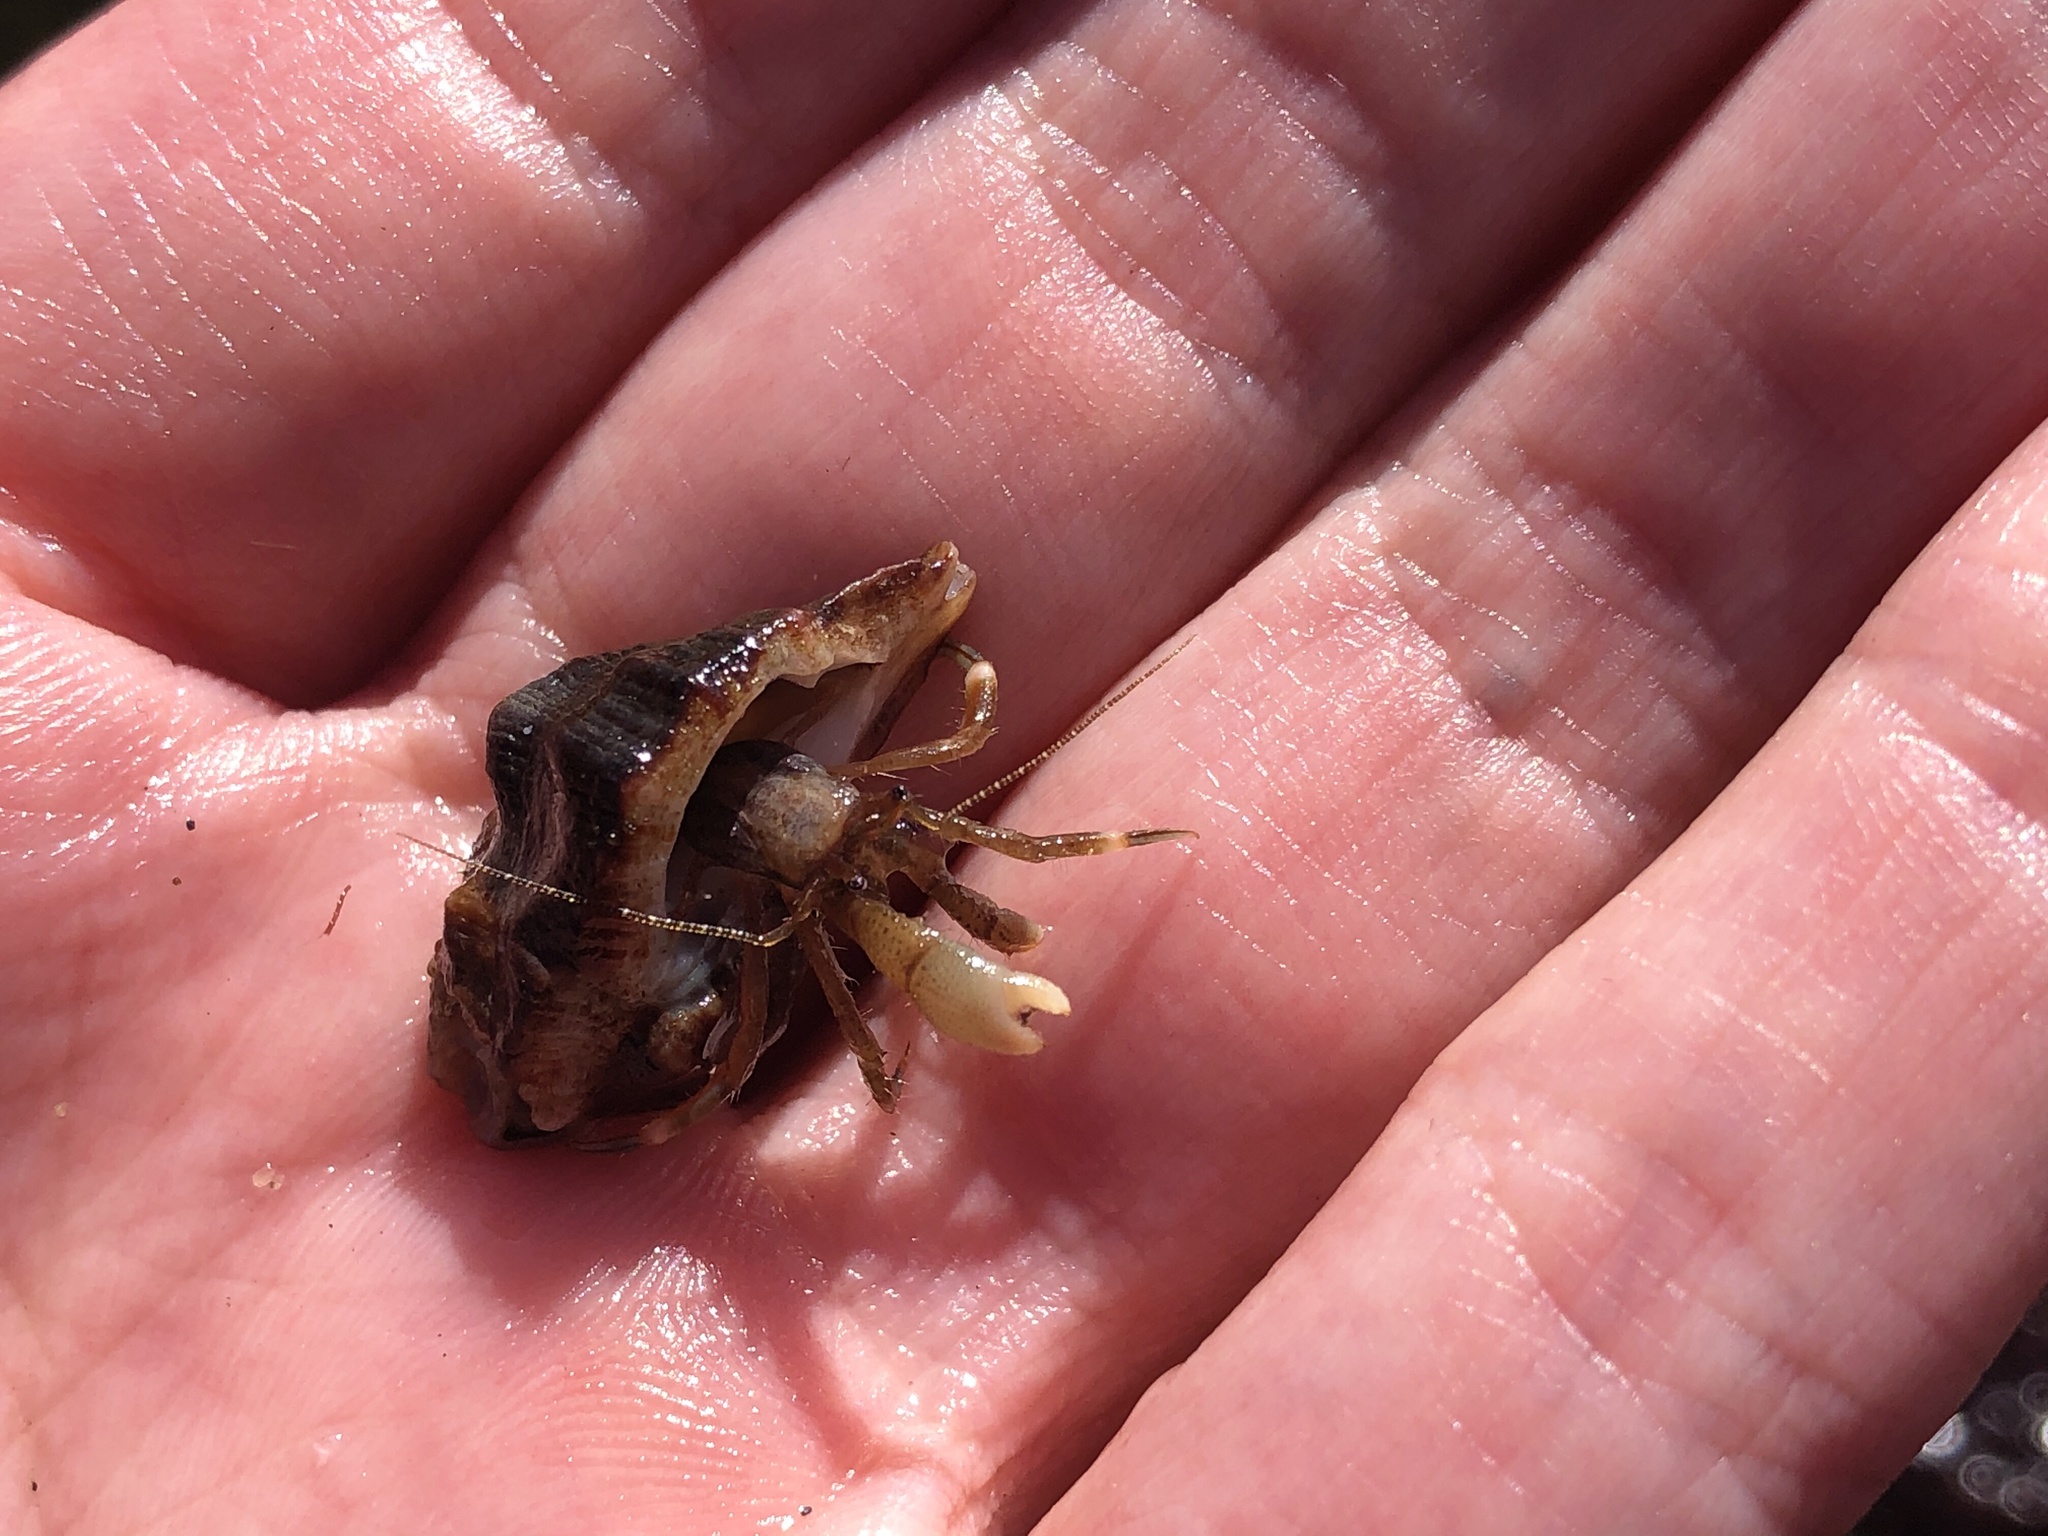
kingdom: Animalia
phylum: Arthropoda
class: Malacostraca
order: Decapoda
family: Paguridae
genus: Pagurus
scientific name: Pagurus venturensis
